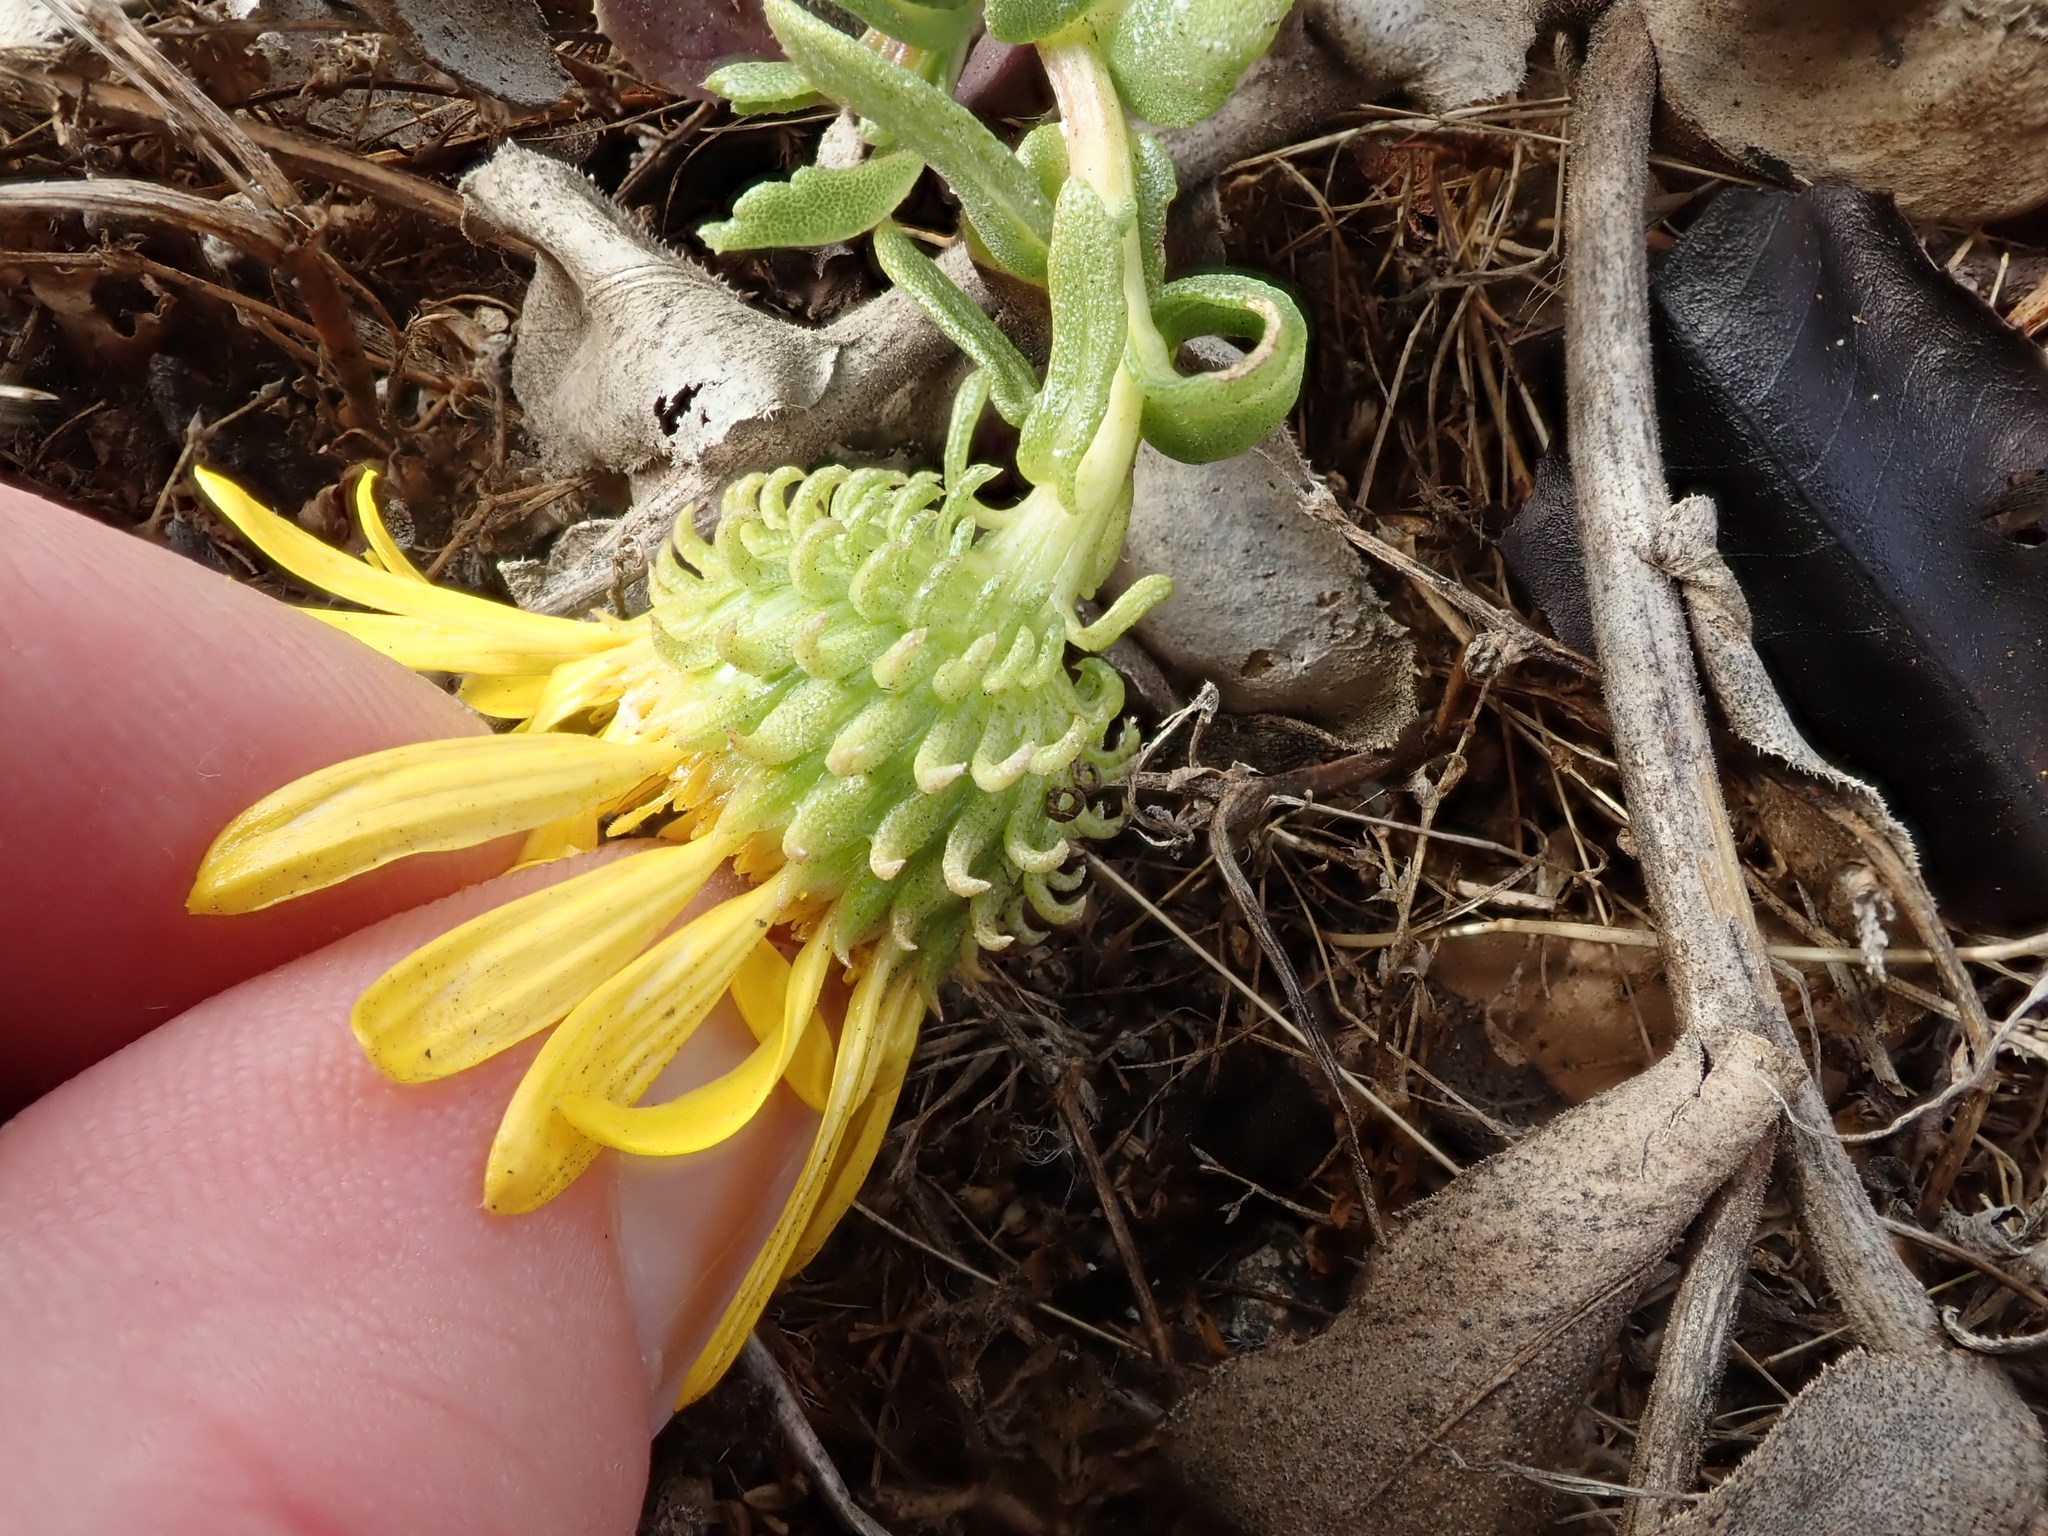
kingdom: Plantae
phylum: Tracheophyta
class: Magnoliopsida
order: Asterales
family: Asteraceae
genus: Grindelia
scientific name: Grindelia hirsutula
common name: Hairy gumweed
